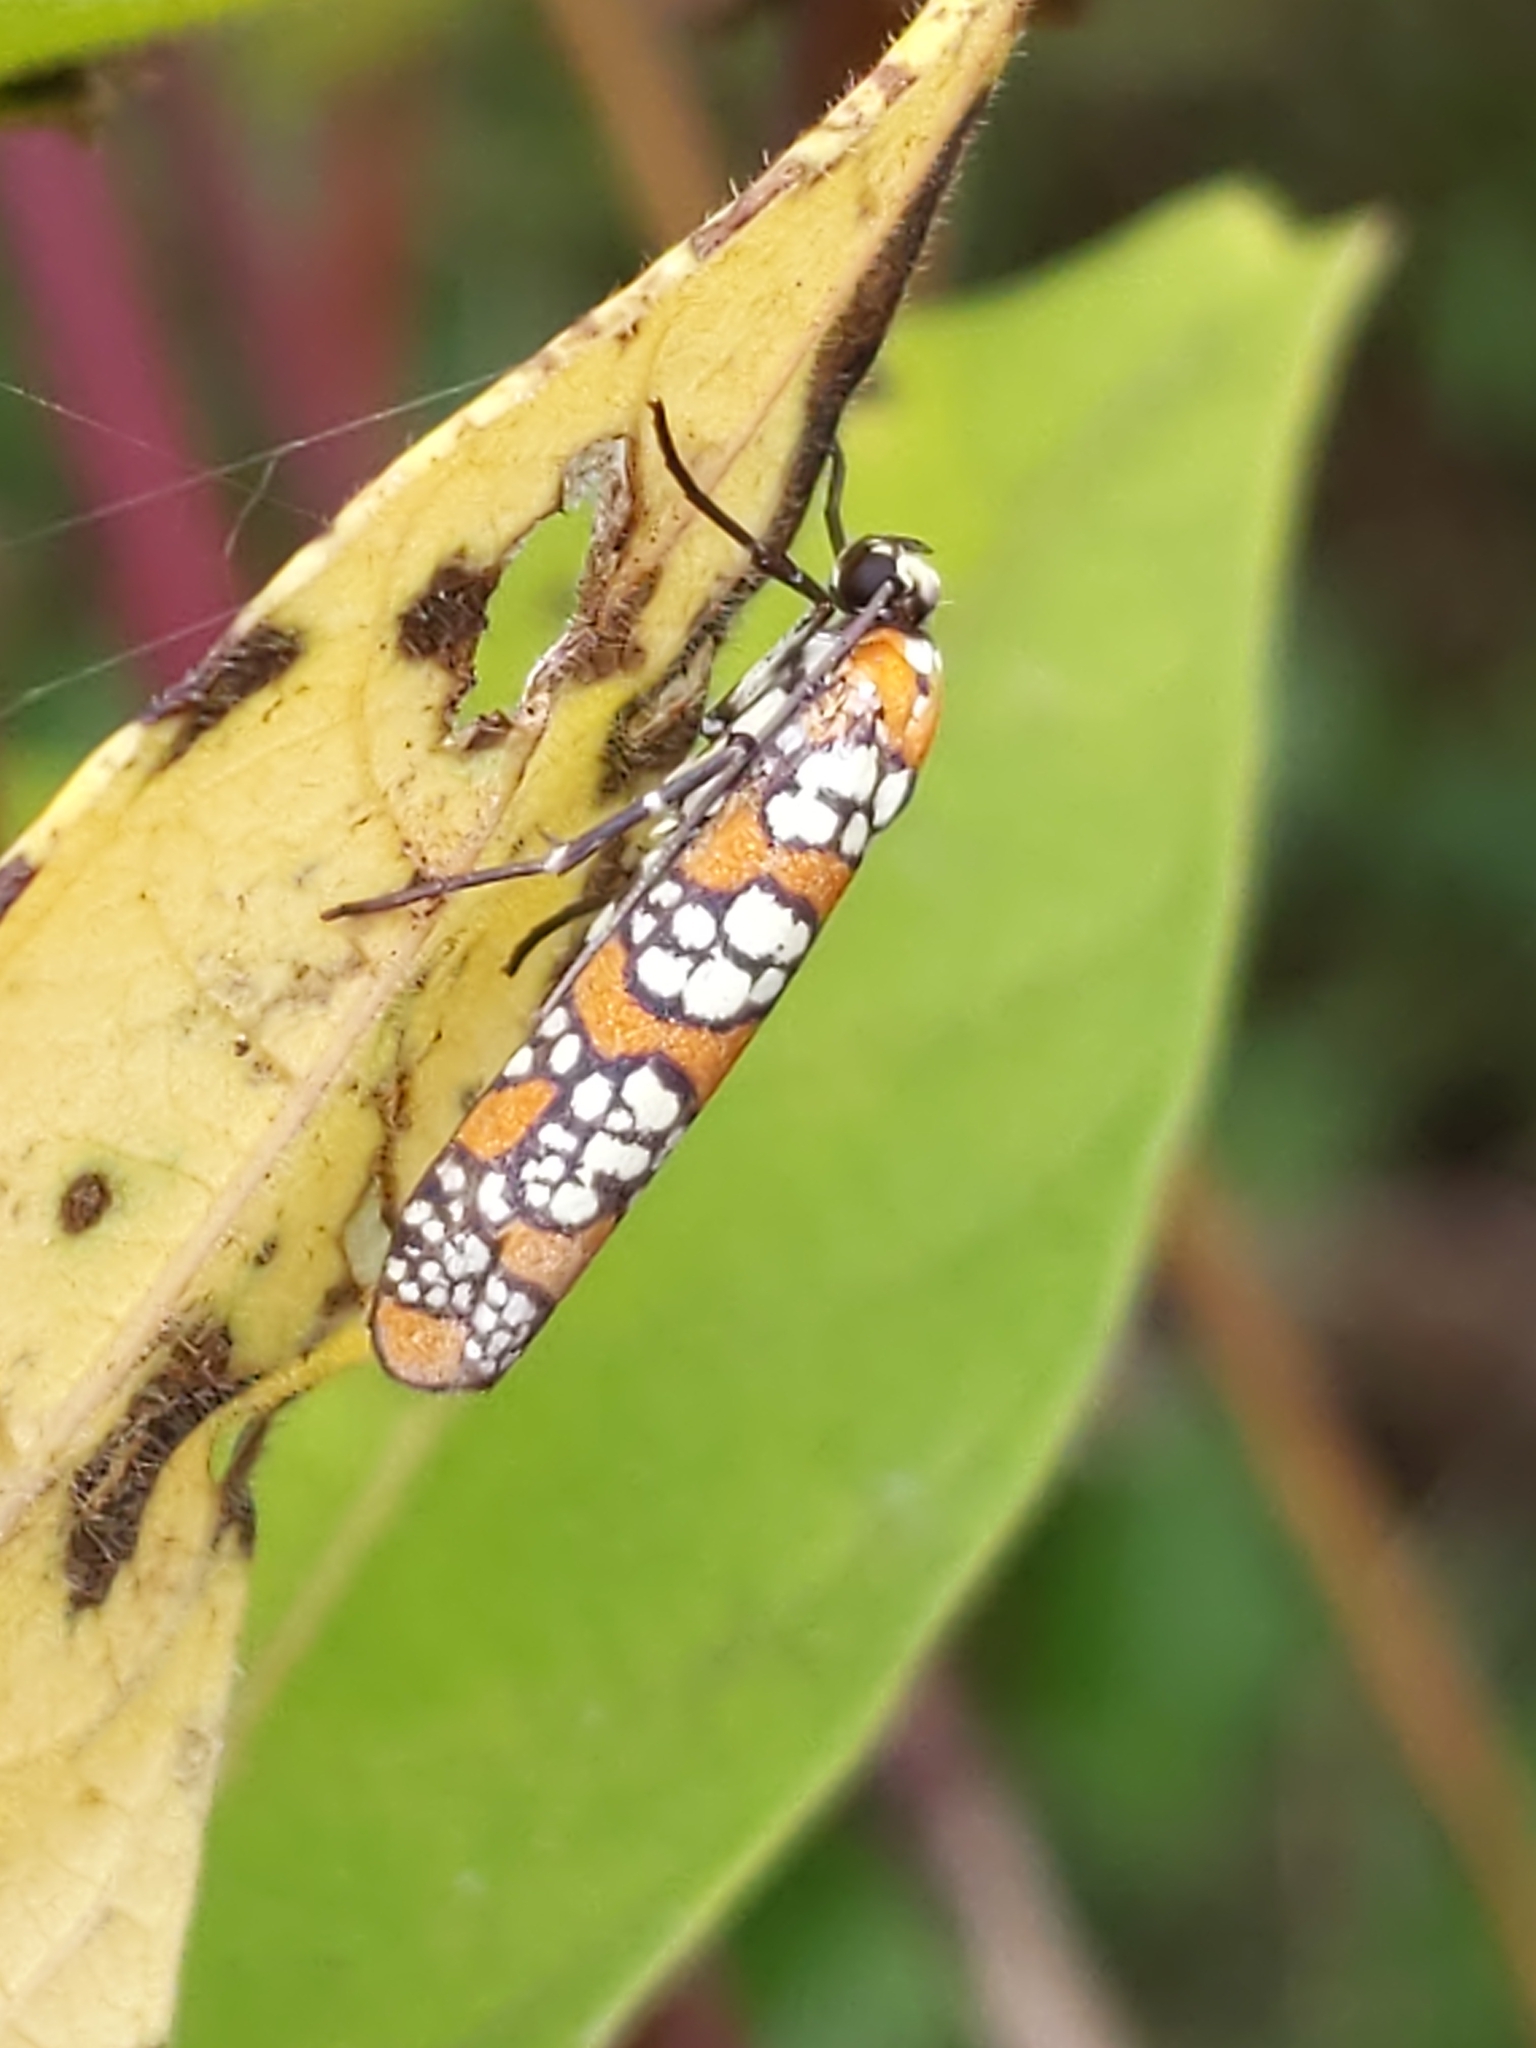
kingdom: Animalia
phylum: Arthropoda
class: Insecta
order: Lepidoptera
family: Attevidae
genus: Atteva
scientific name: Atteva punctella
